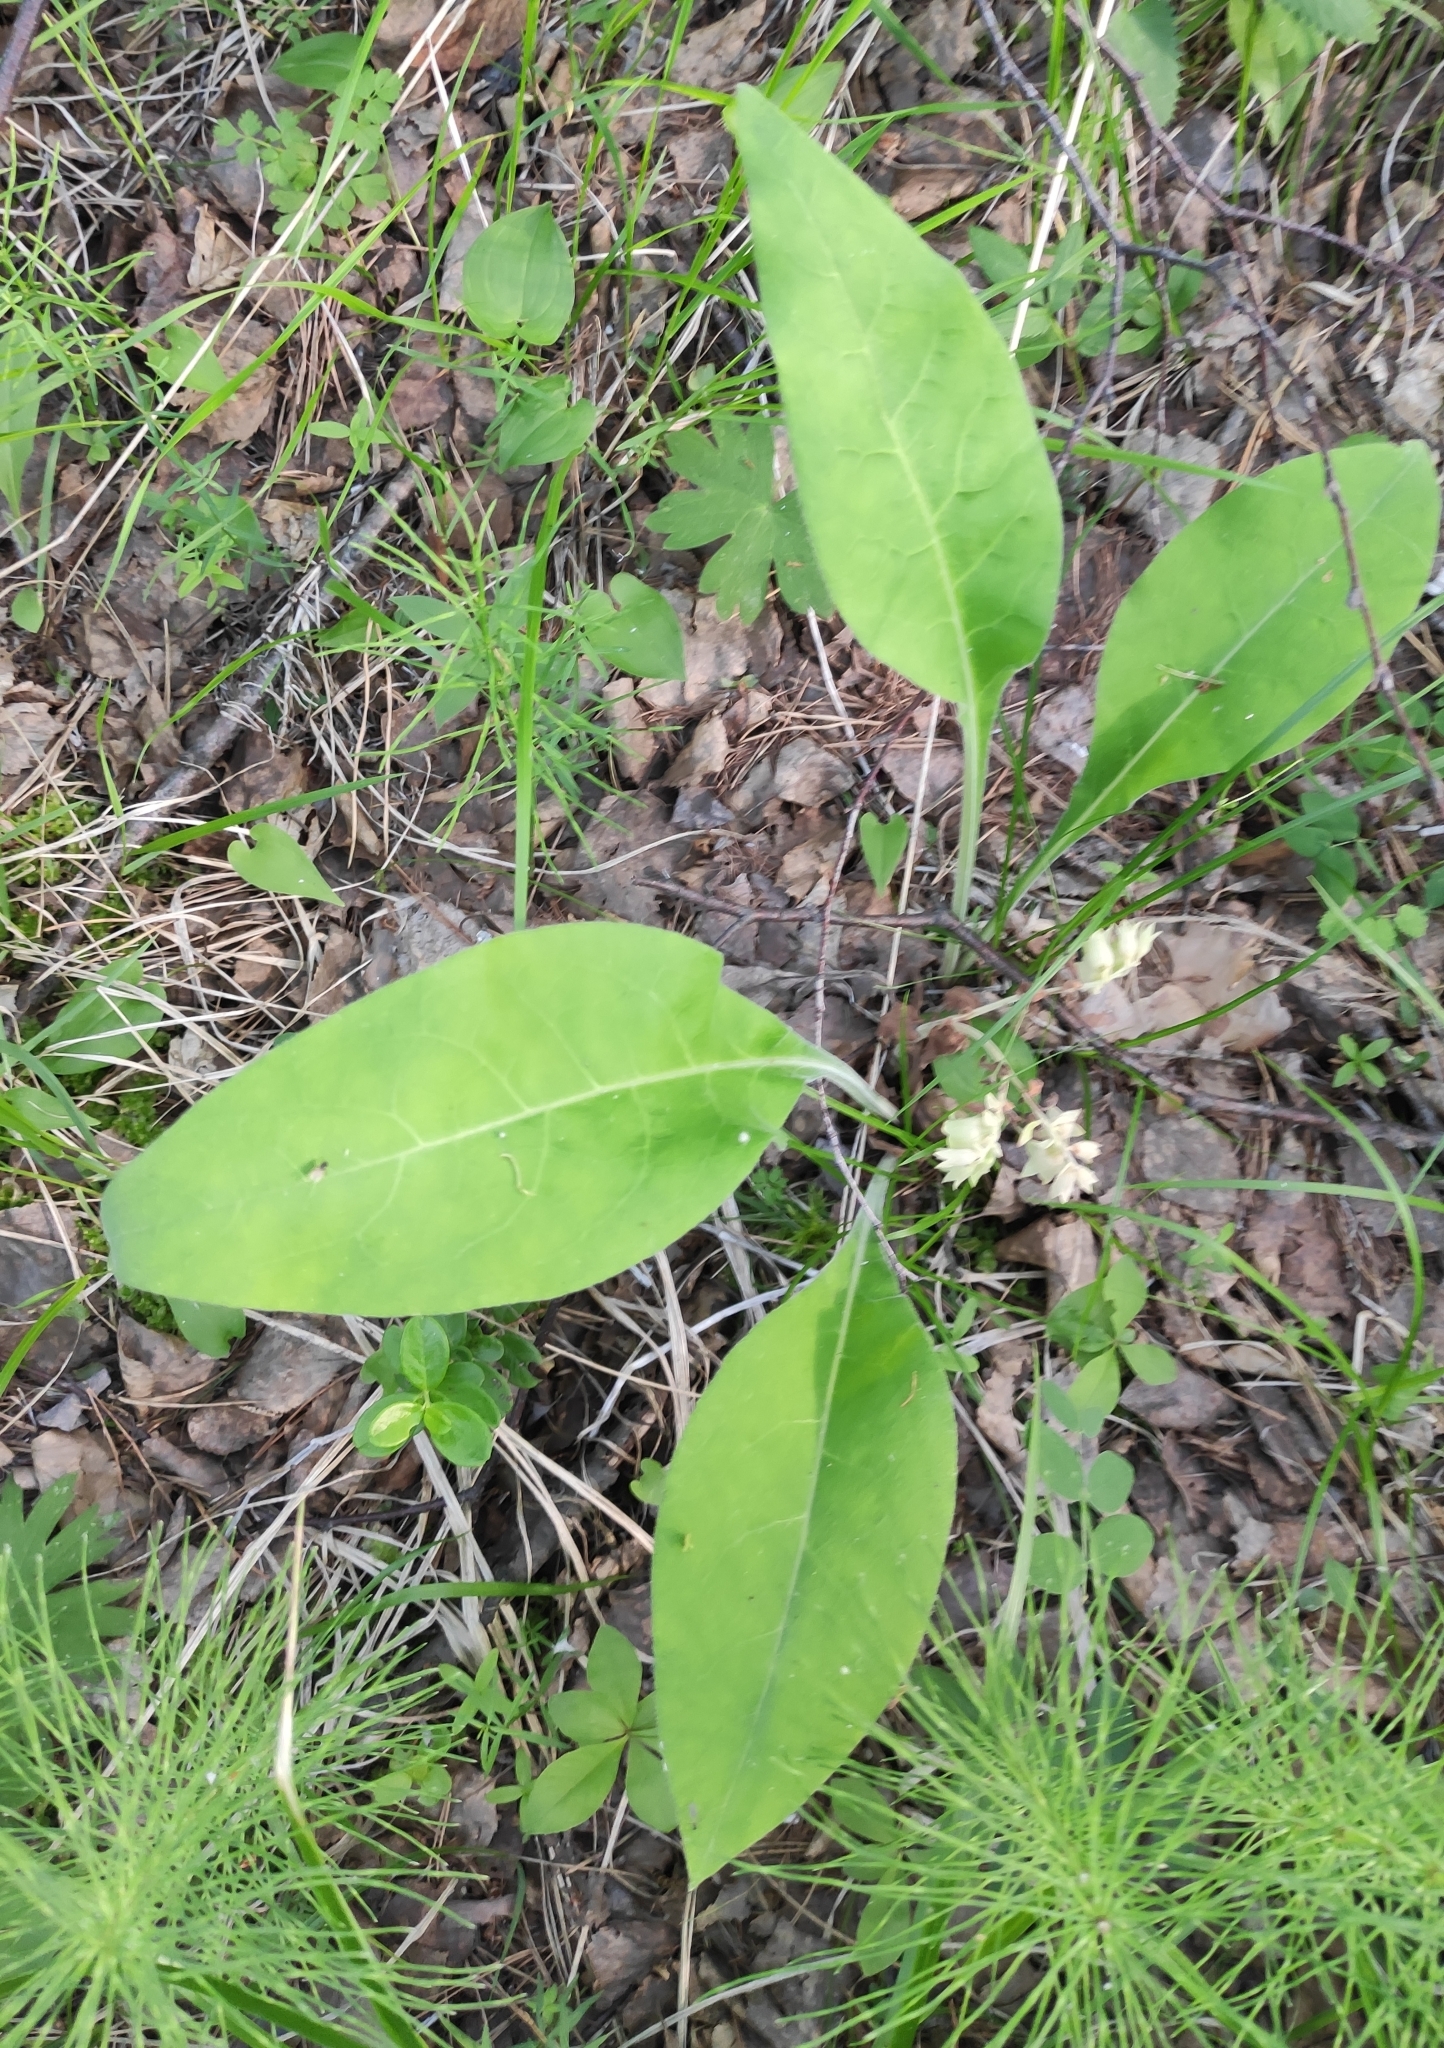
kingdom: Plantae
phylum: Tracheophyta
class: Magnoliopsida
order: Boraginales
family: Boraginaceae
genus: Pulmonaria
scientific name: Pulmonaria mollis
